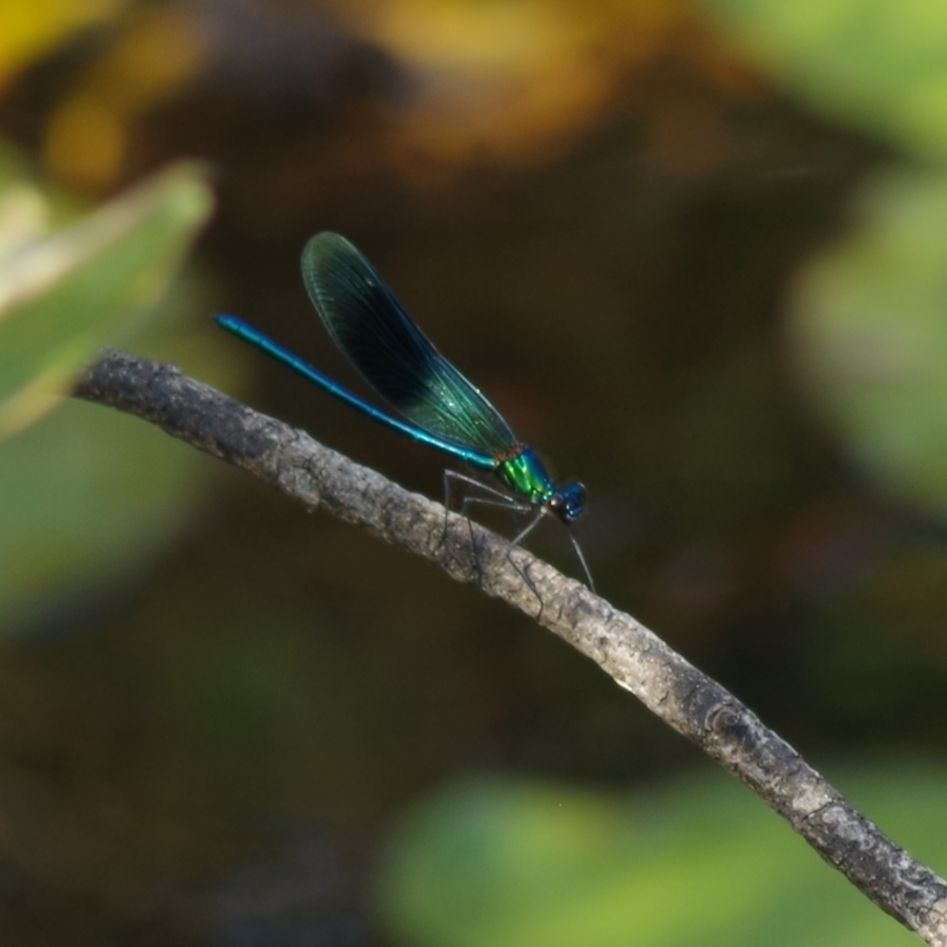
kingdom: Animalia
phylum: Arthropoda
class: Insecta
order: Odonata
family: Calopterygidae
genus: Calopteryx
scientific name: Calopteryx splendens
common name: Banded demoiselle
